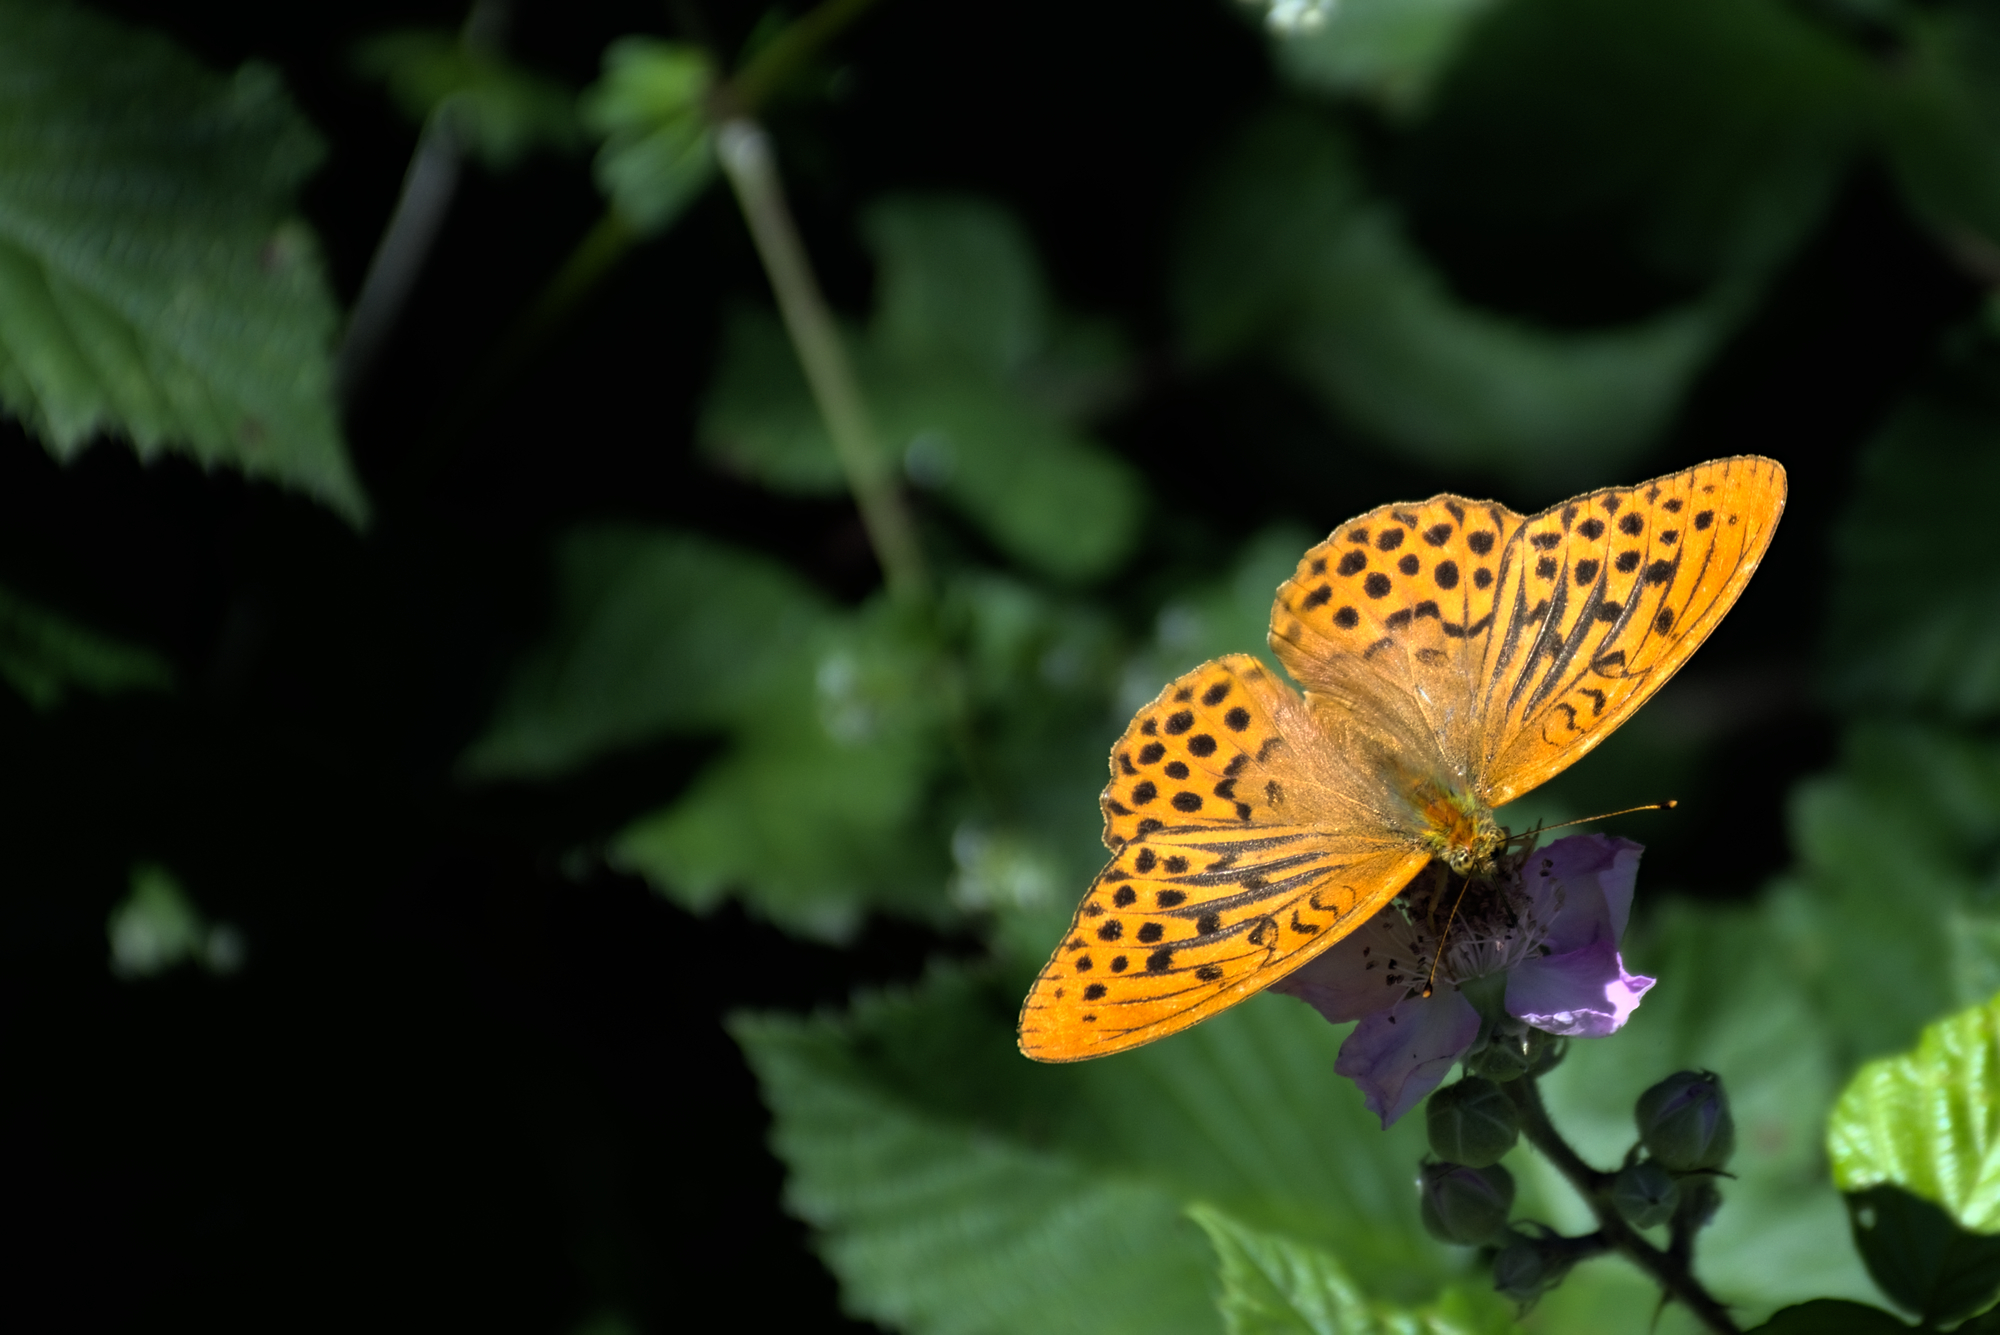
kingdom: Animalia
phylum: Arthropoda
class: Insecta
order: Lepidoptera
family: Nymphalidae
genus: Argynnis
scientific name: Argynnis paphia
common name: Silver-washed fritillary
